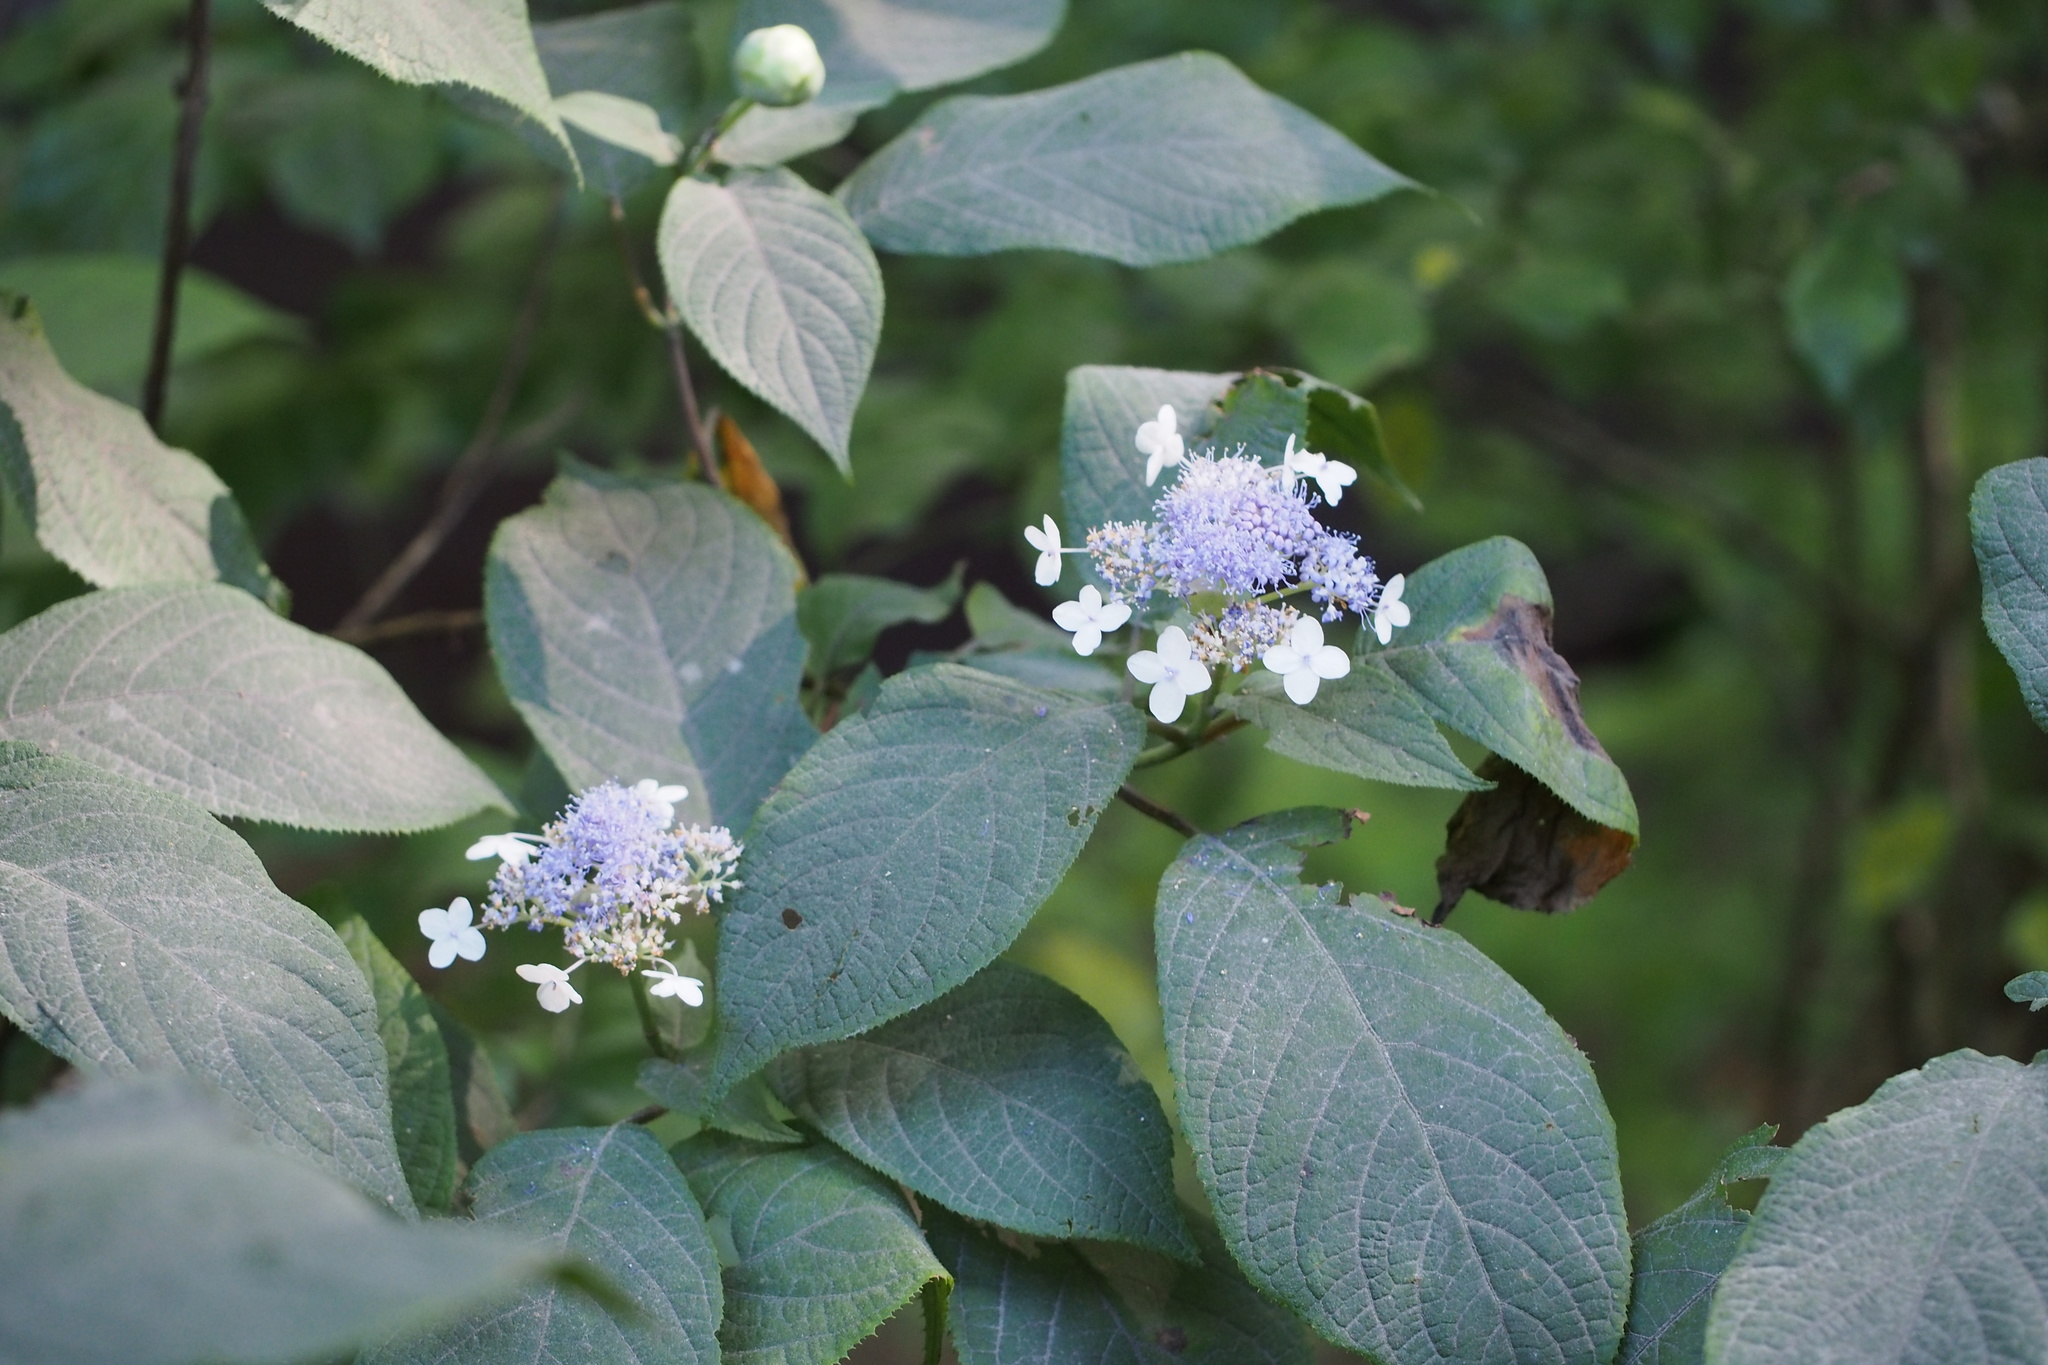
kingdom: Plantae
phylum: Tracheophyta
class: Magnoliopsida
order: Cornales
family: Hydrangeaceae
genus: Hydrangea
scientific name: Hydrangea involucrata
